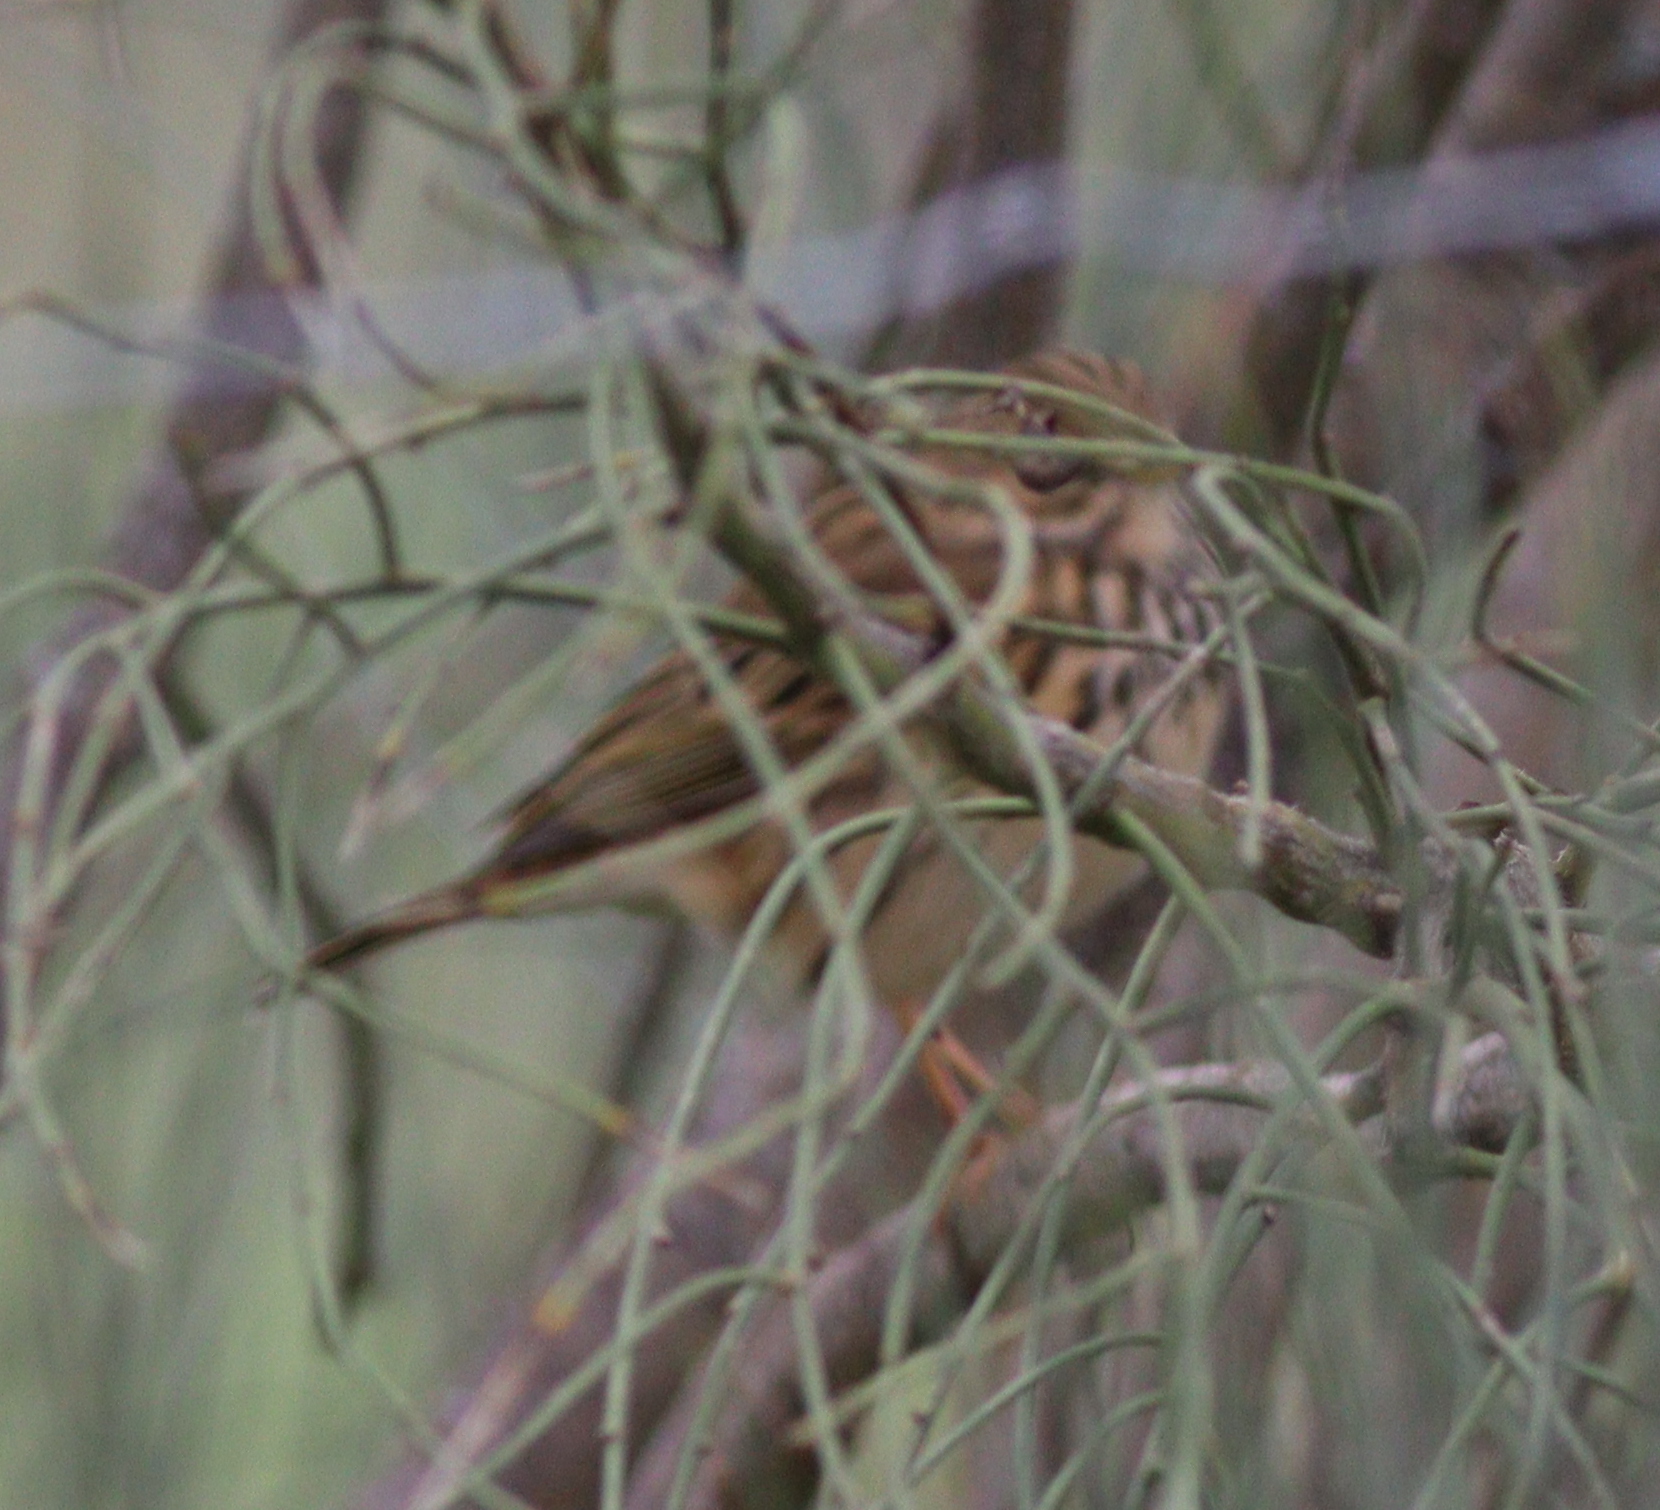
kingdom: Animalia
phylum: Chordata
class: Aves
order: Passeriformes
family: Motacillidae
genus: Anthus
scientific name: Anthus pratensis
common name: Meadow pipit
